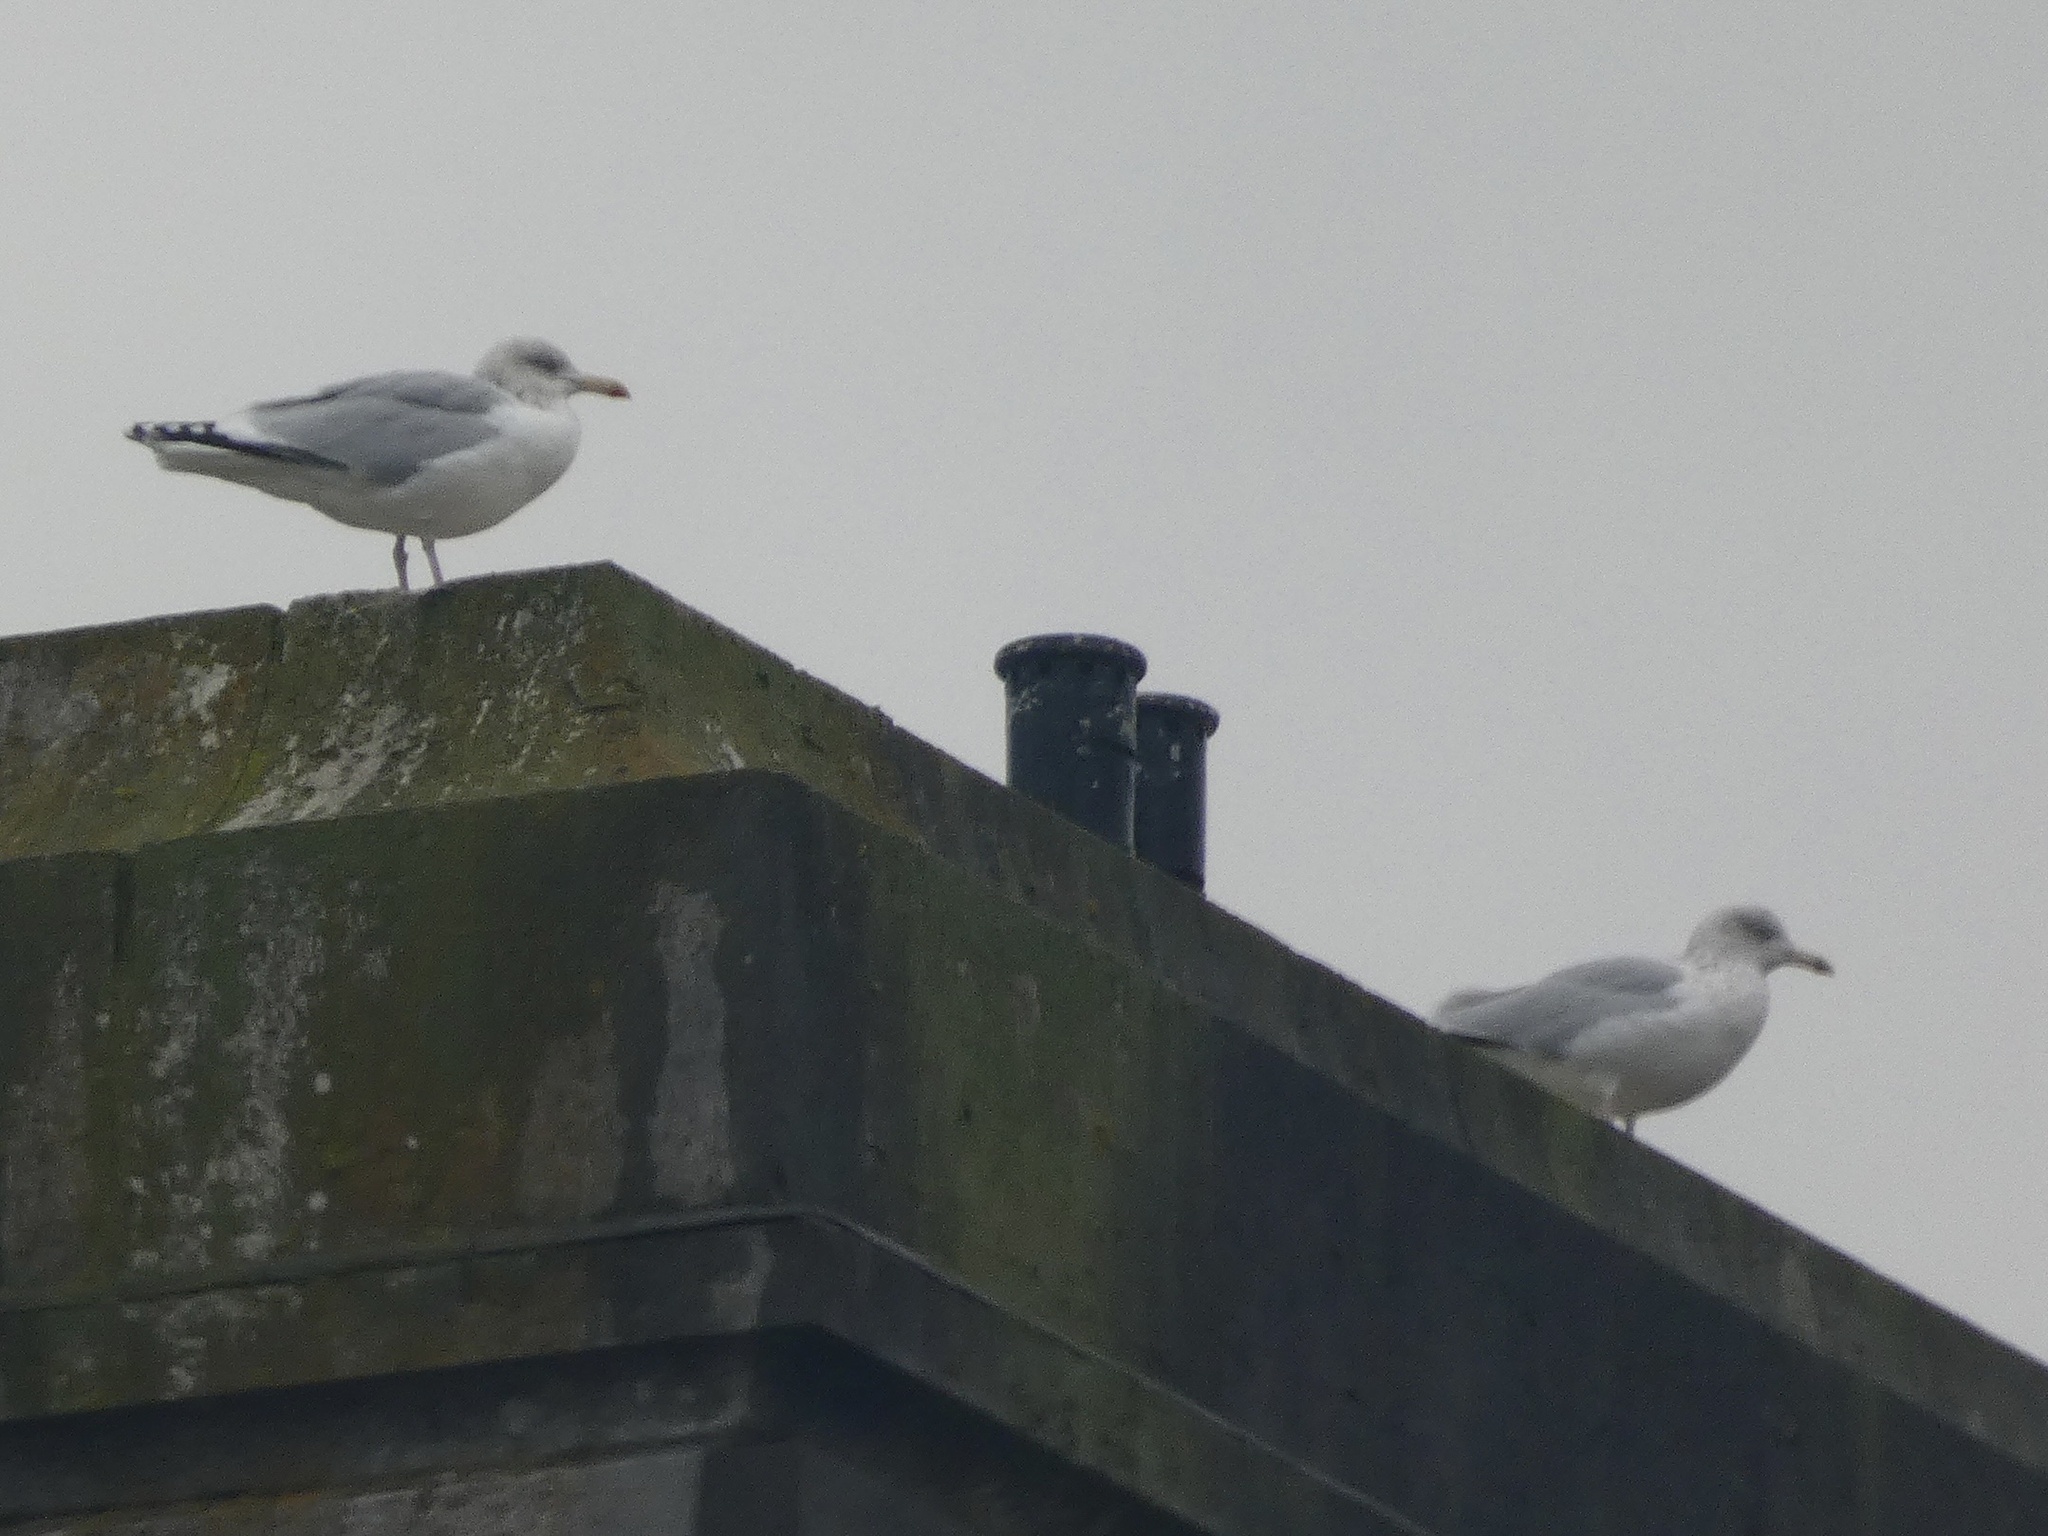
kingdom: Animalia
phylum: Chordata
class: Aves
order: Charadriiformes
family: Laridae
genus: Larus
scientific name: Larus argentatus
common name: Herring gull
